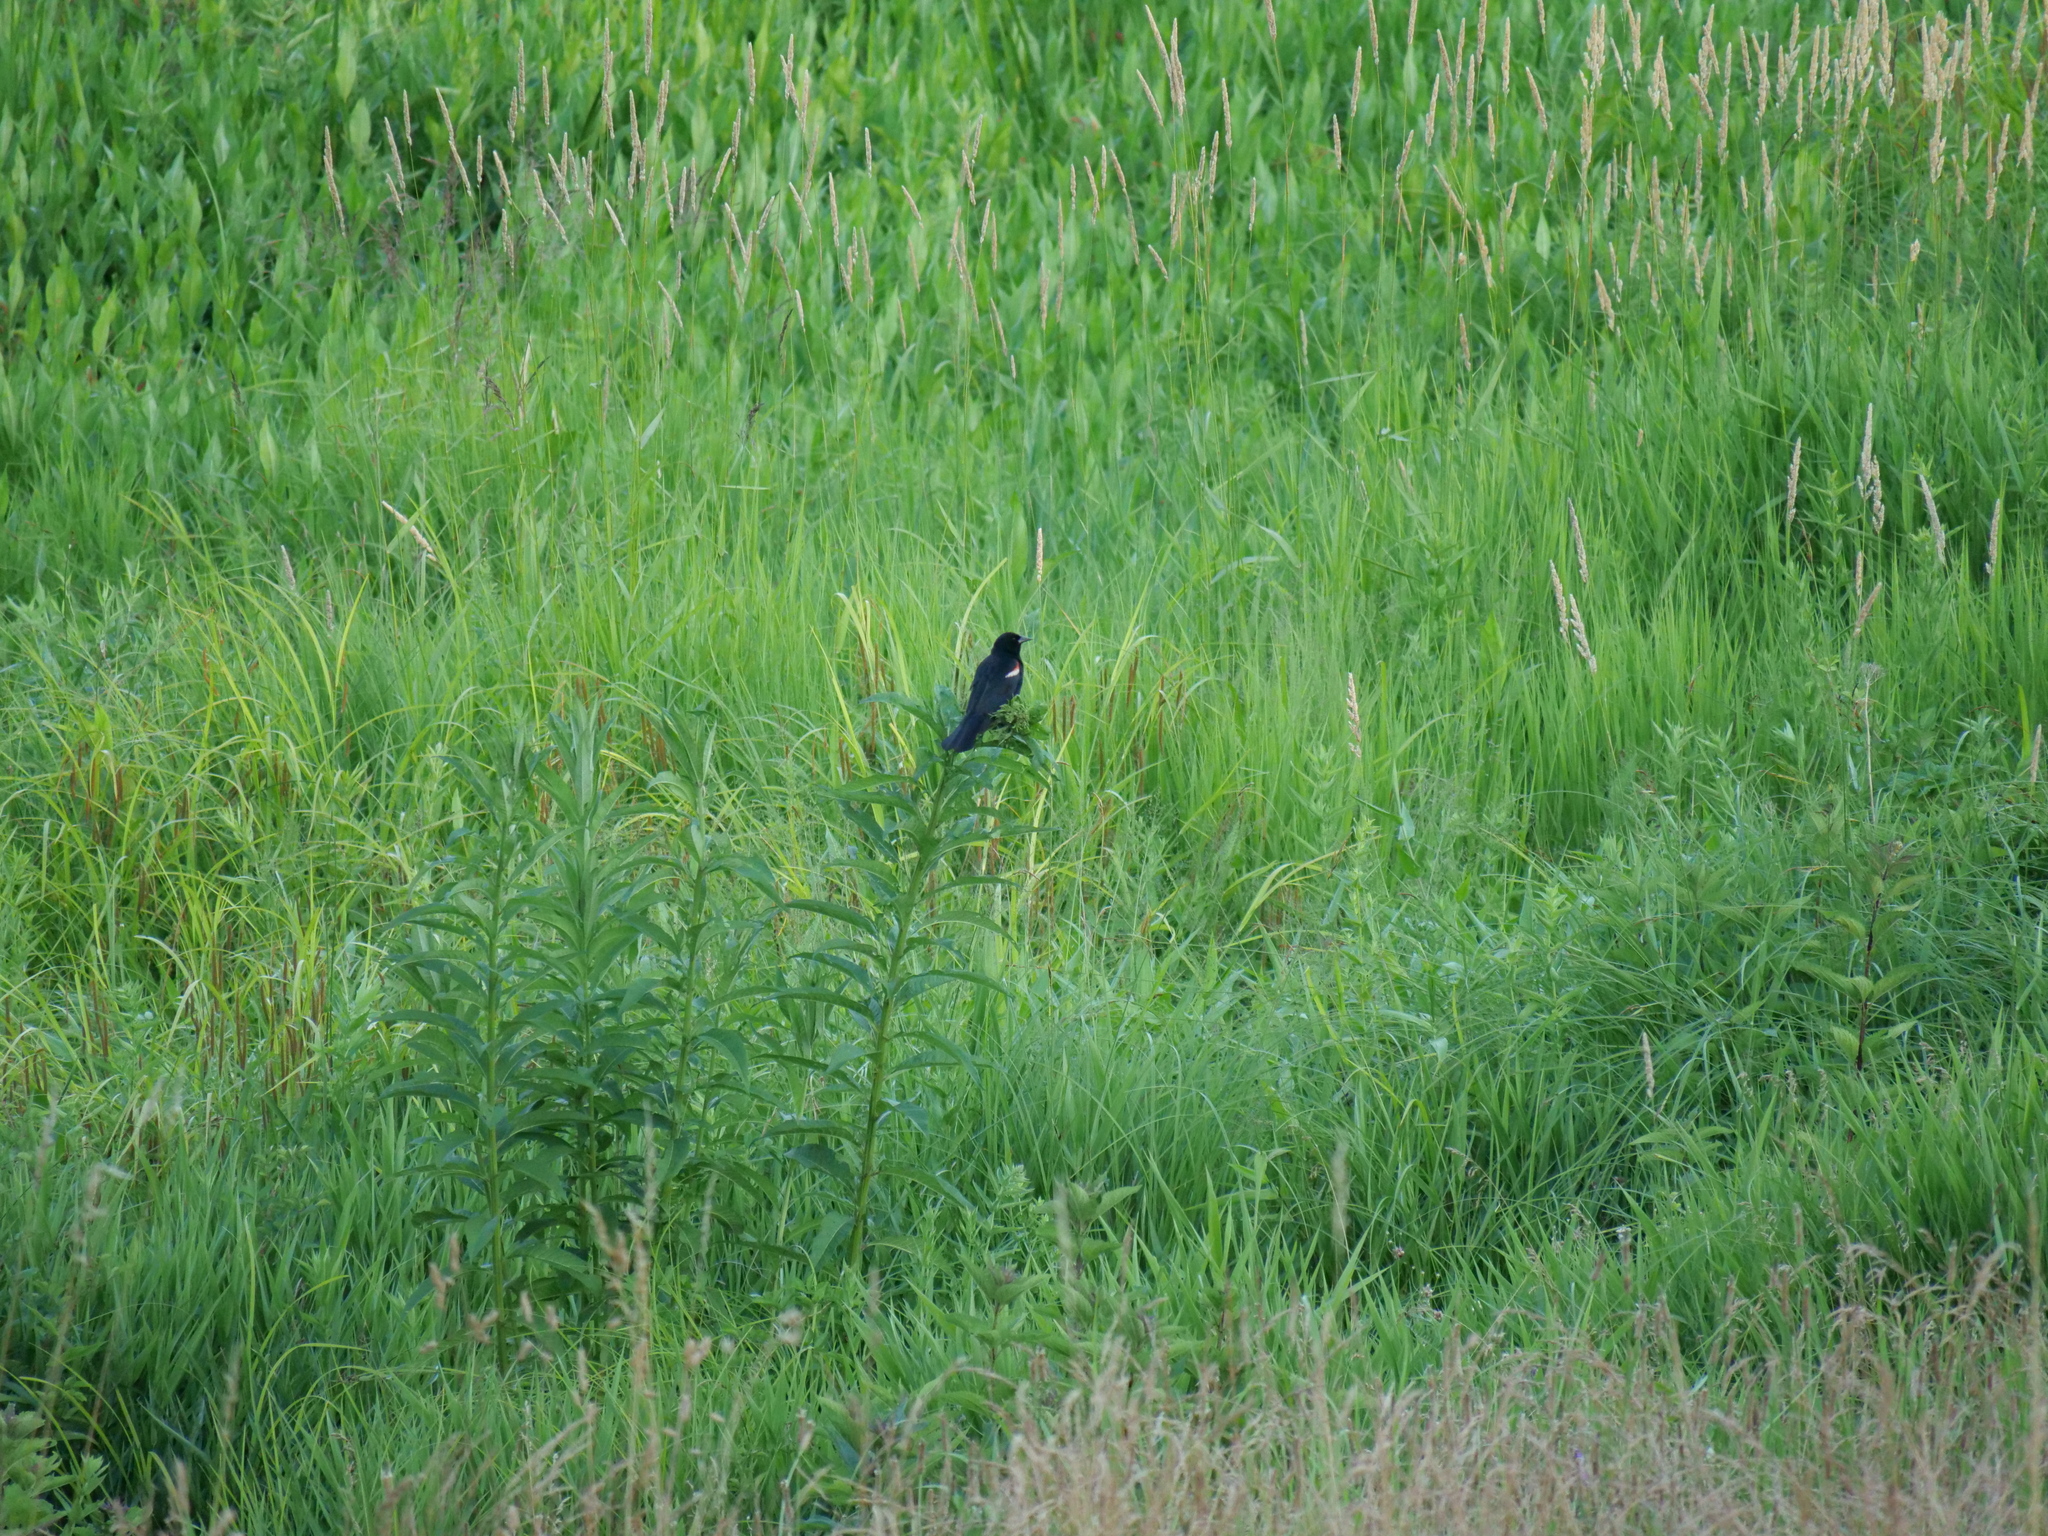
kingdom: Animalia
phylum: Chordata
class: Aves
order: Passeriformes
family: Icteridae
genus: Agelaius
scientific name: Agelaius phoeniceus
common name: Red-winged blackbird
